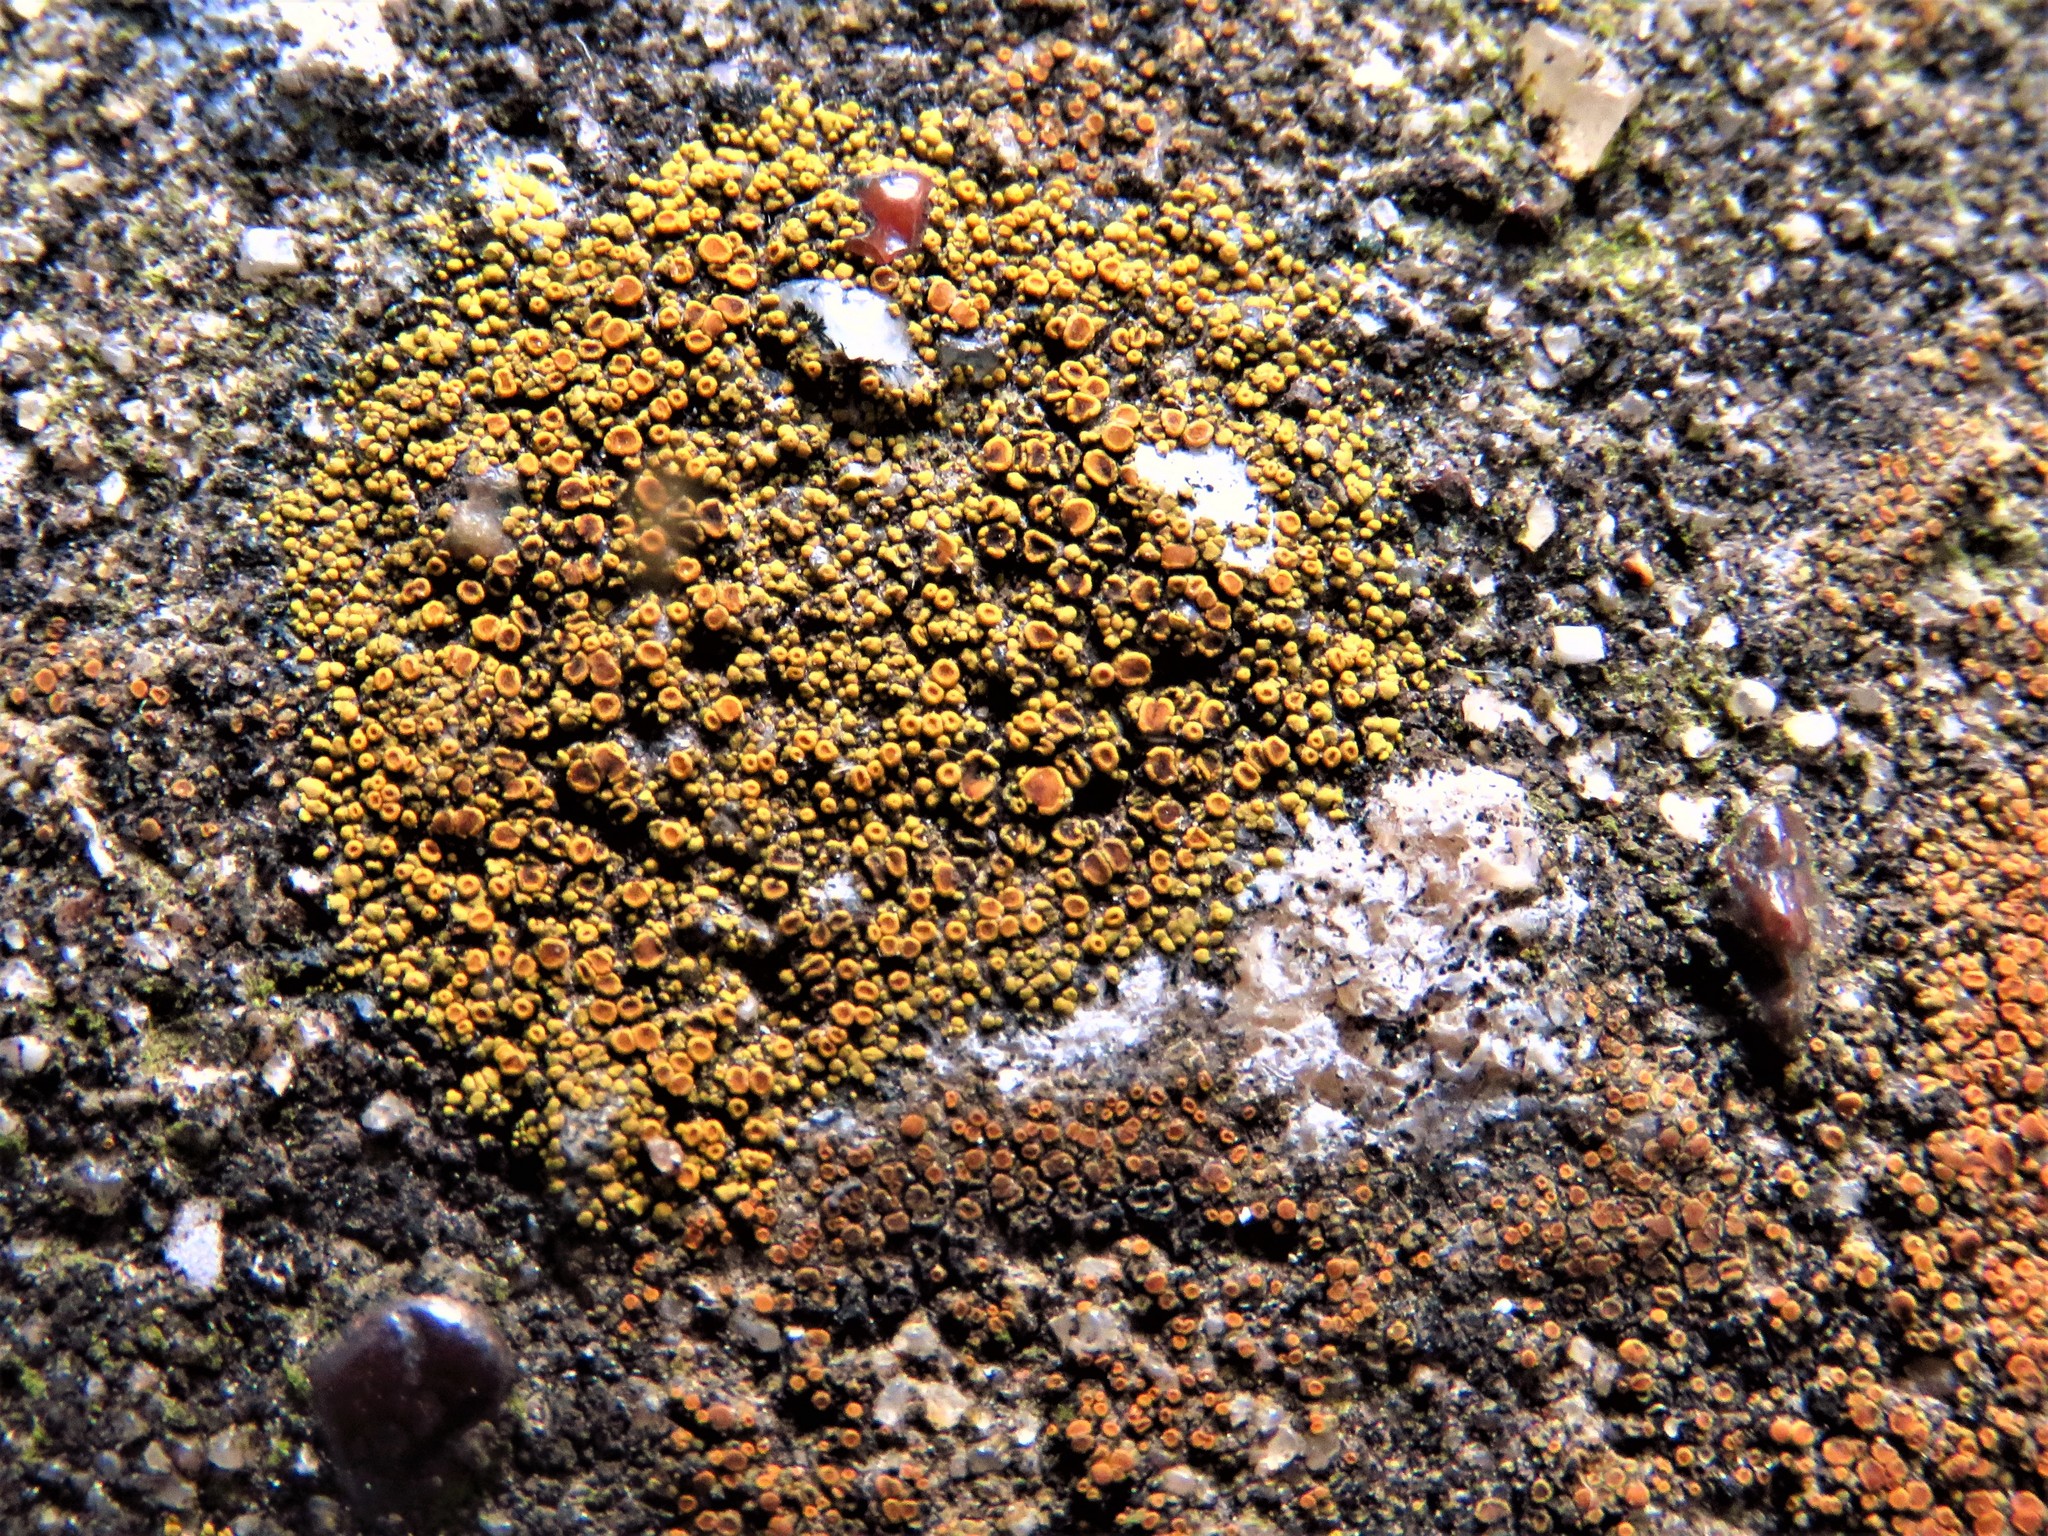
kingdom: Fungi
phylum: Ascomycota
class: Lecanoromycetes
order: Teloschistales
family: Teloschistaceae
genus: Xanthocarpia
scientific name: Xanthocarpia feracissima
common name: Sidewalk firedot
